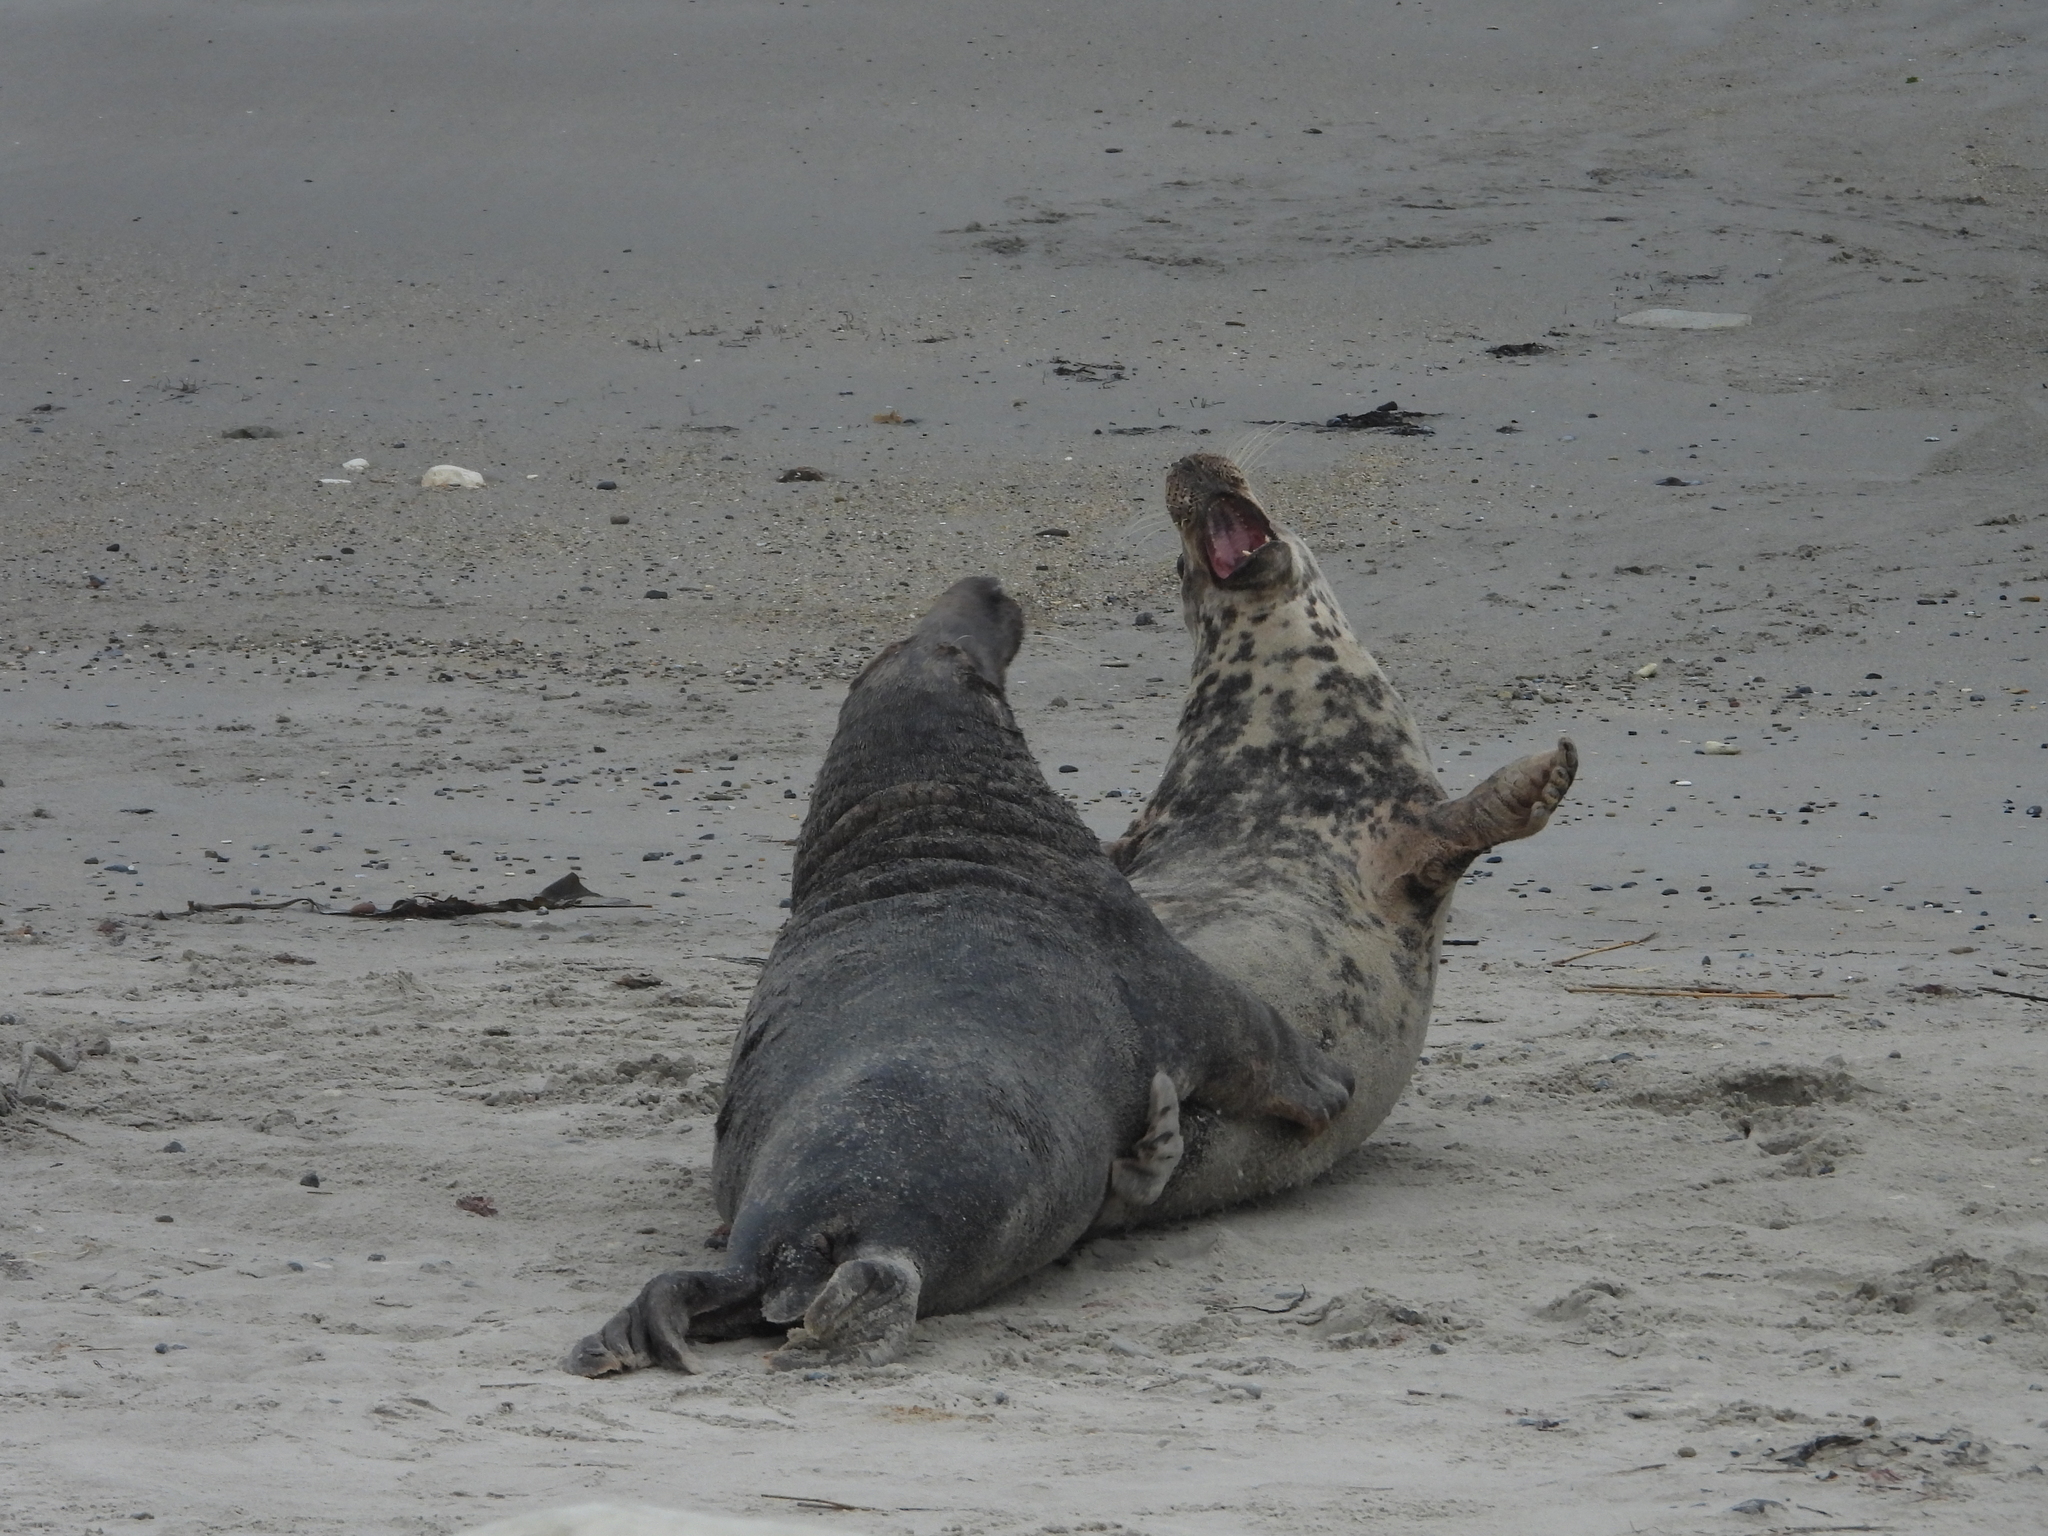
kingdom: Animalia
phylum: Chordata
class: Mammalia
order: Carnivora
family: Phocidae
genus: Halichoerus
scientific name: Halichoerus grypus
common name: Grey seal
